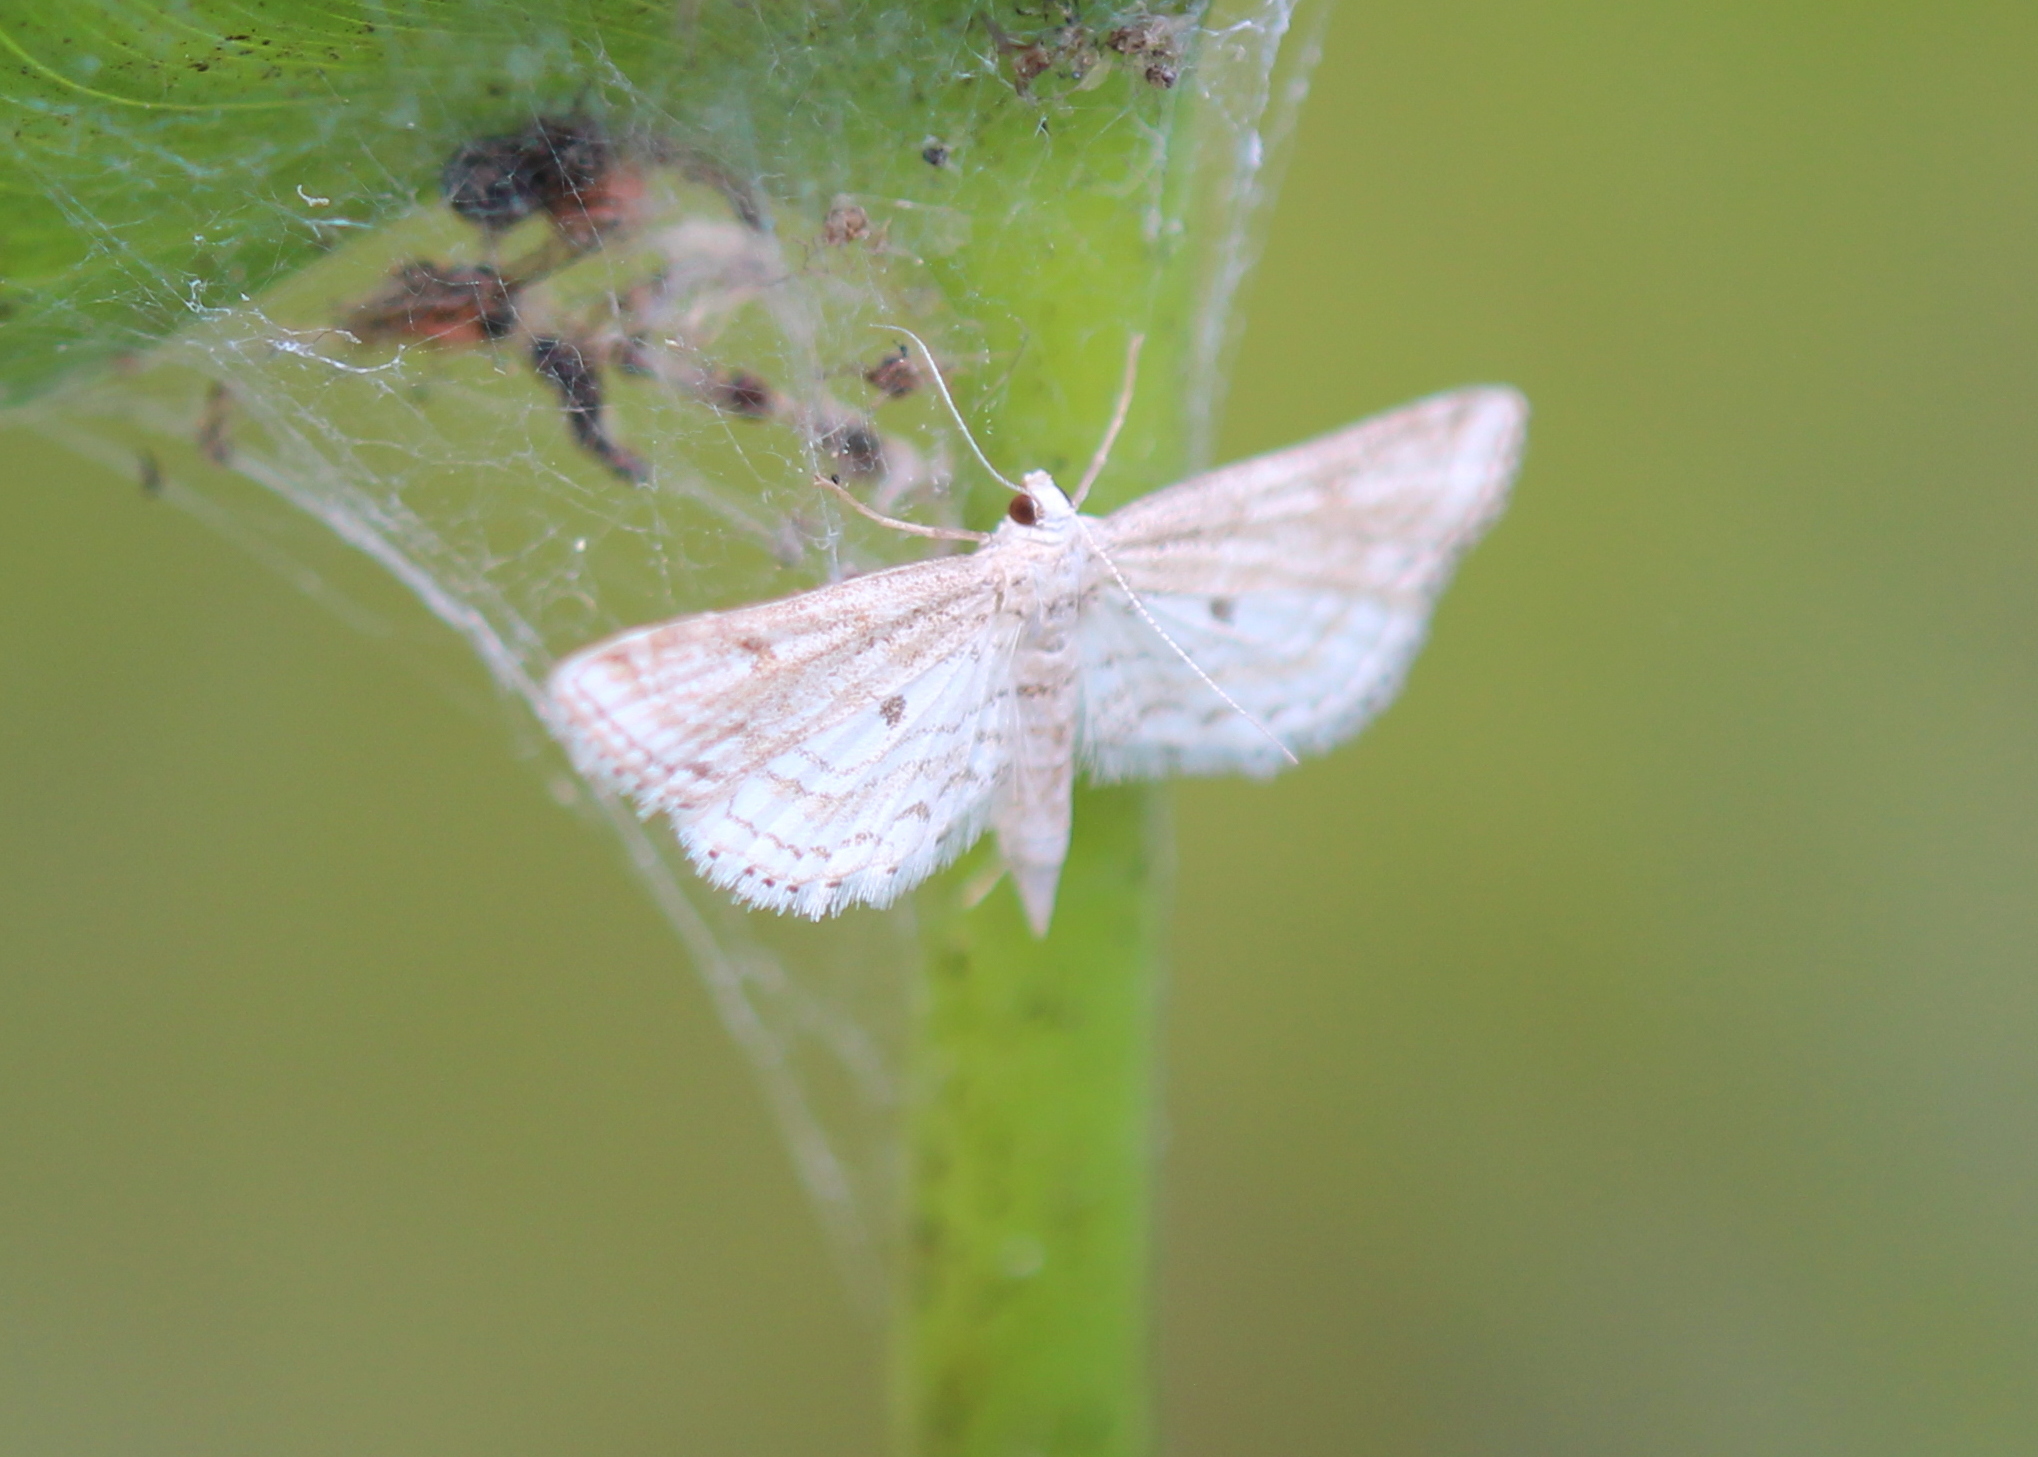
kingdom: Animalia
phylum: Arthropoda
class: Insecta
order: Lepidoptera
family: Crambidae
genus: Parapoynx
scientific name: Parapoynx allionealis
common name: Bladderwort casemaker
